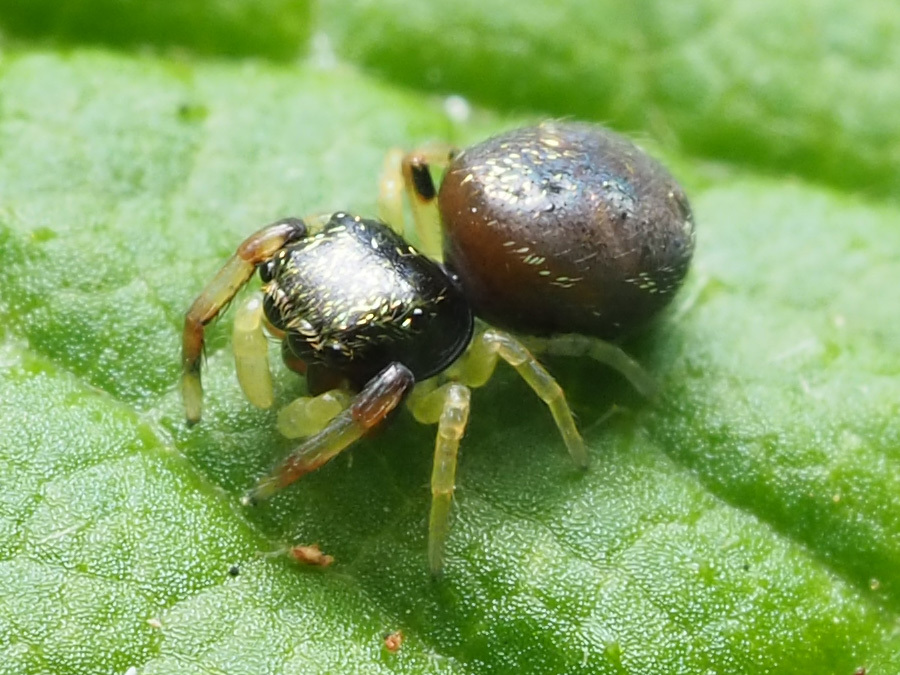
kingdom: Animalia
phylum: Arthropoda
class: Arachnida
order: Araneae
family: Salticidae
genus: Zygoballus
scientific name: Zygoballus rufipes
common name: Jumping spiders
